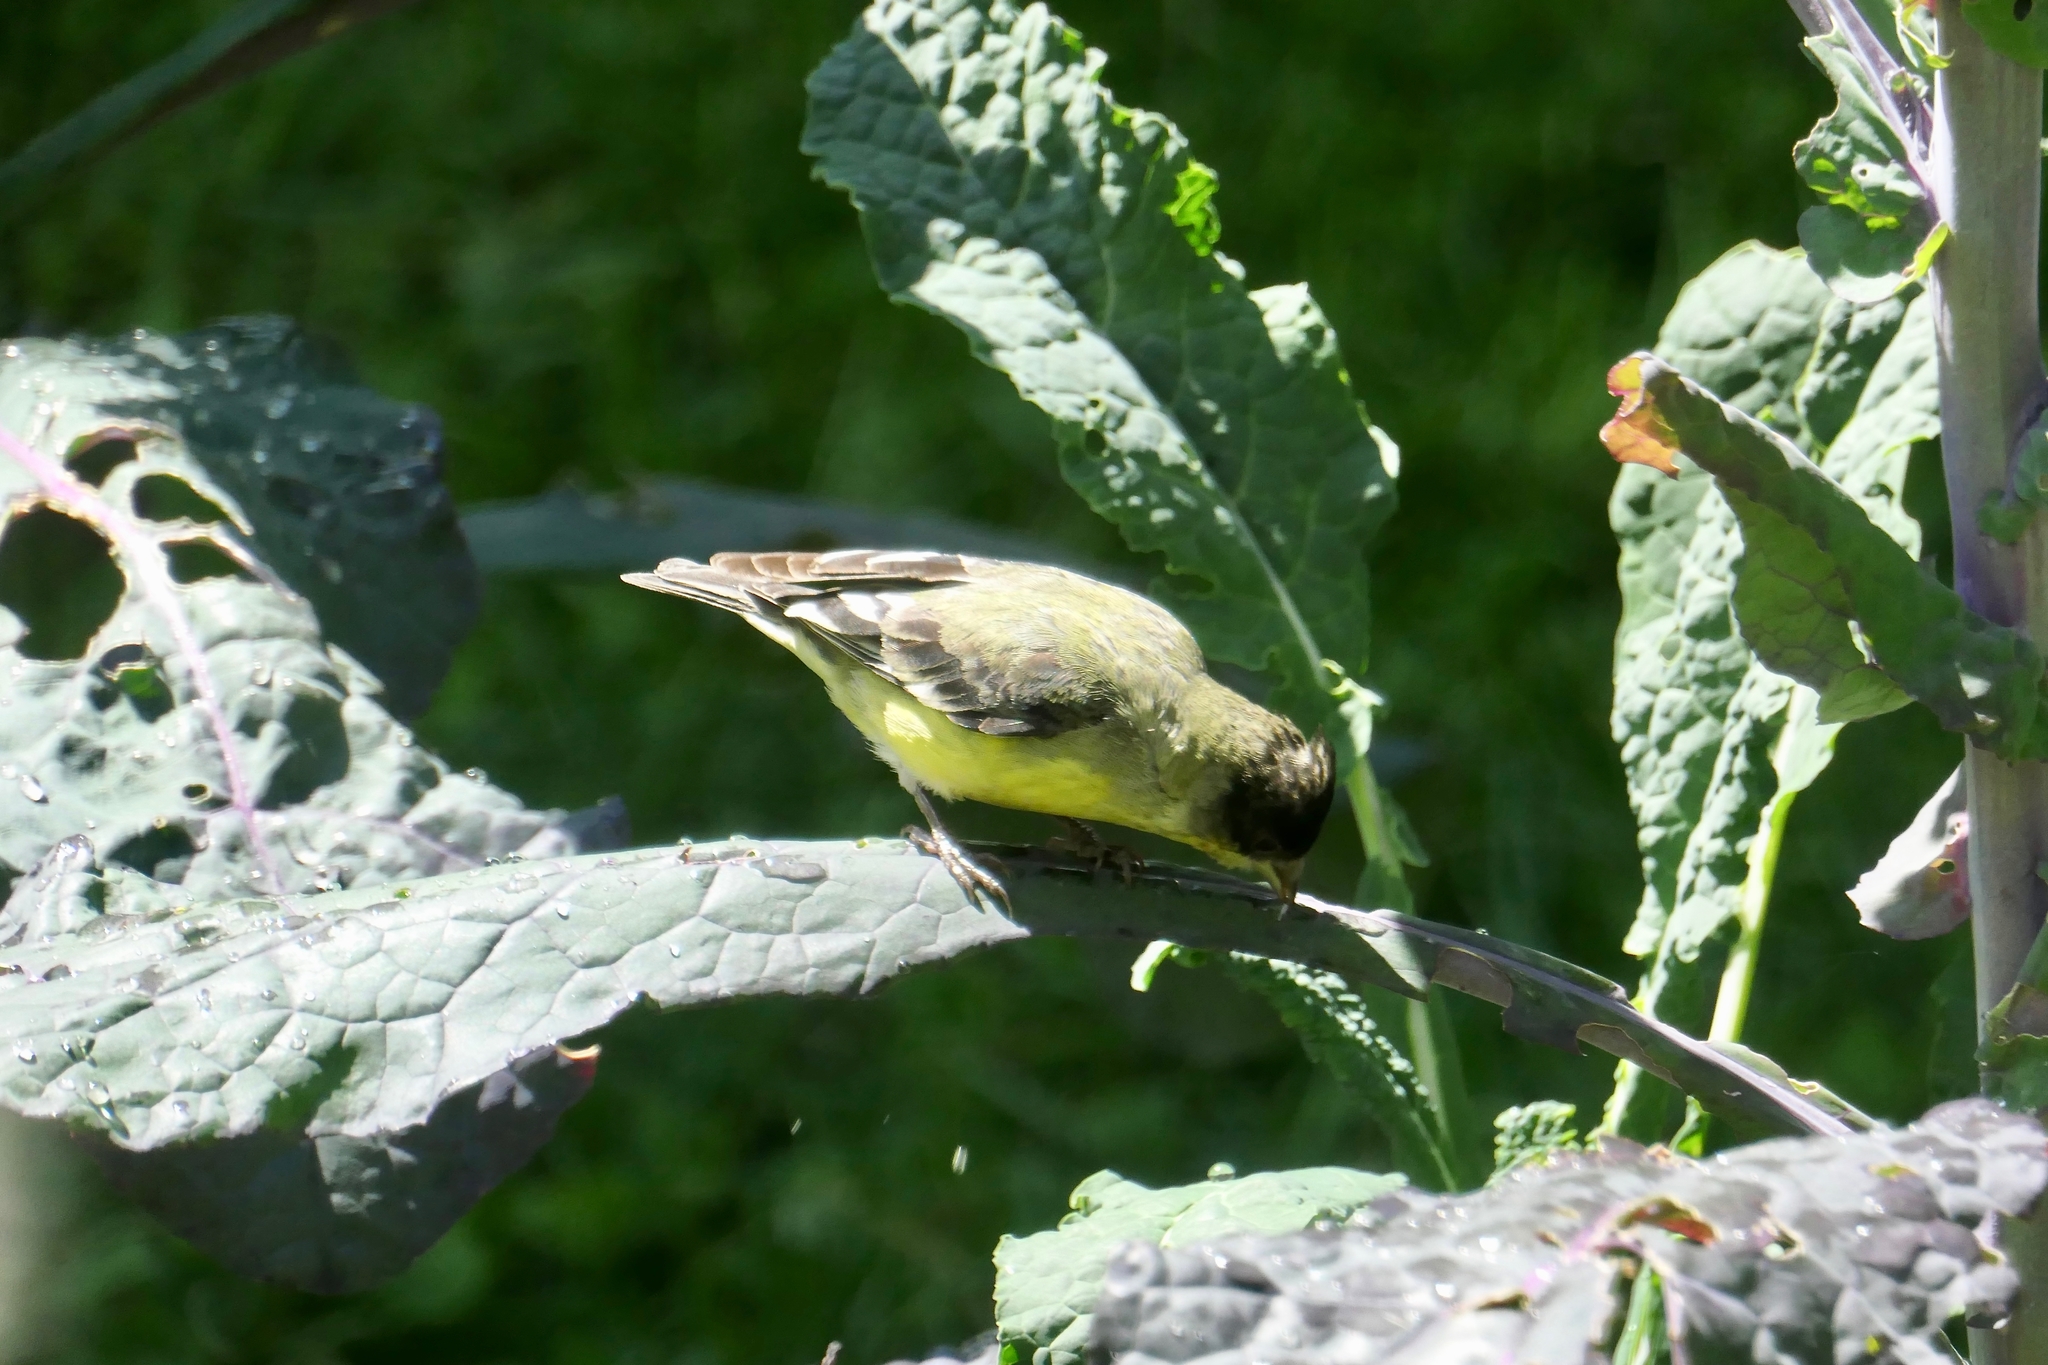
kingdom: Animalia
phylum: Chordata
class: Aves
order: Passeriformes
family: Fringillidae
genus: Spinus
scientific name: Spinus psaltria
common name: Lesser goldfinch
